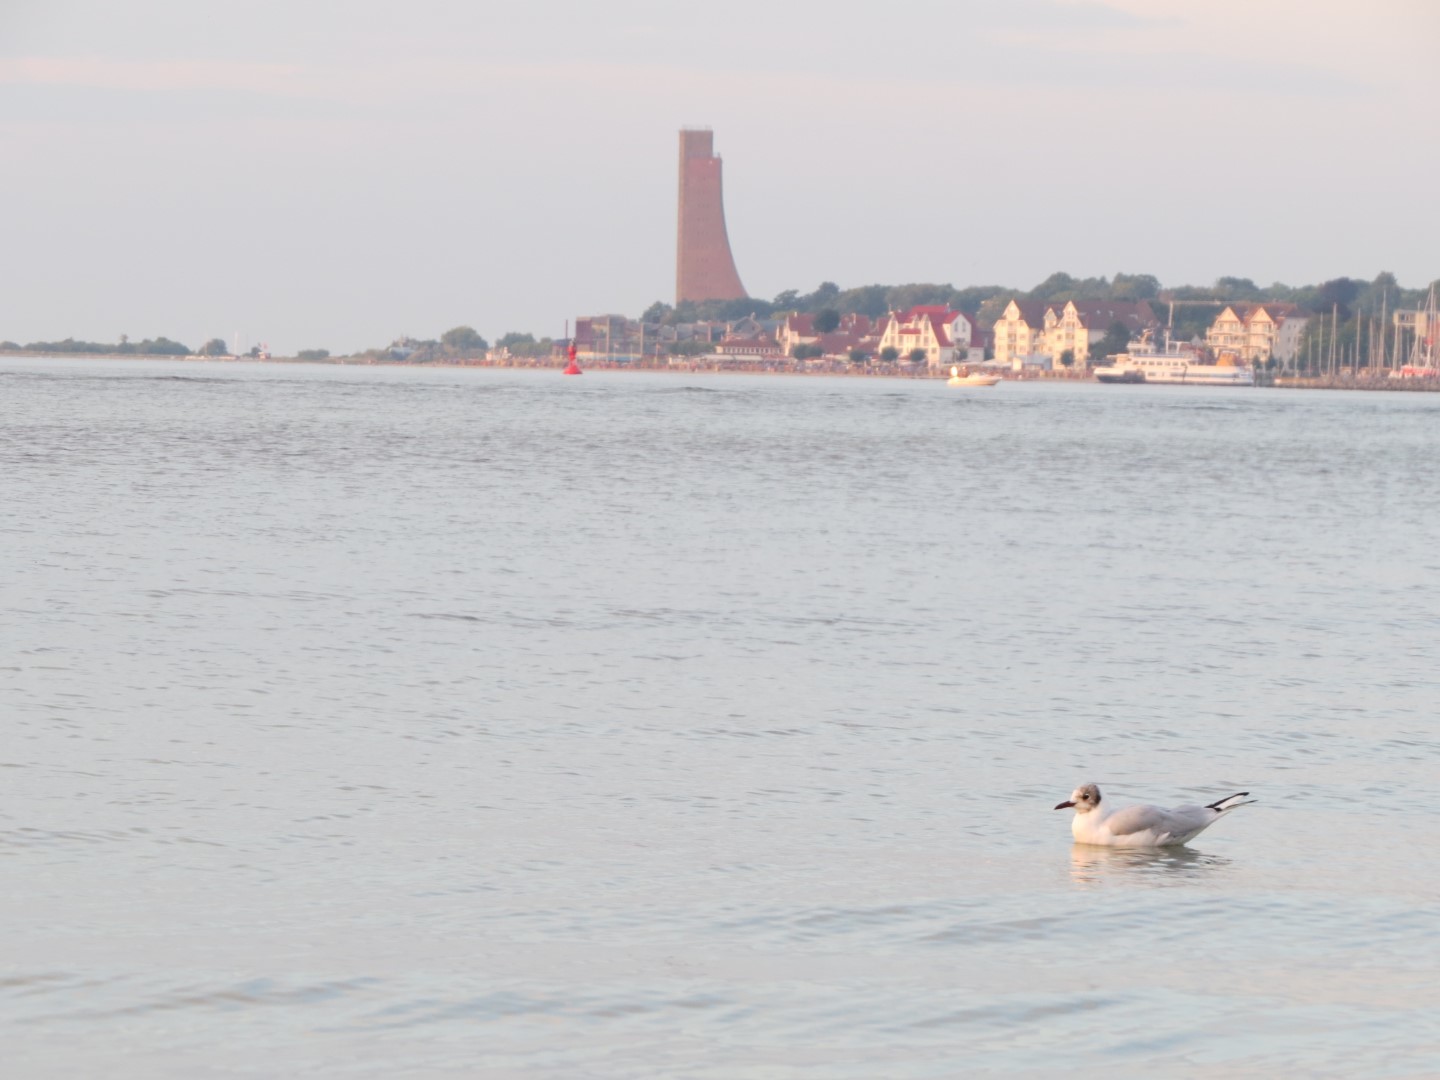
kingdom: Animalia
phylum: Chordata
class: Aves
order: Charadriiformes
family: Laridae
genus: Chroicocephalus
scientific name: Chroicocephalus ridibundus
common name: Black-headed gull
